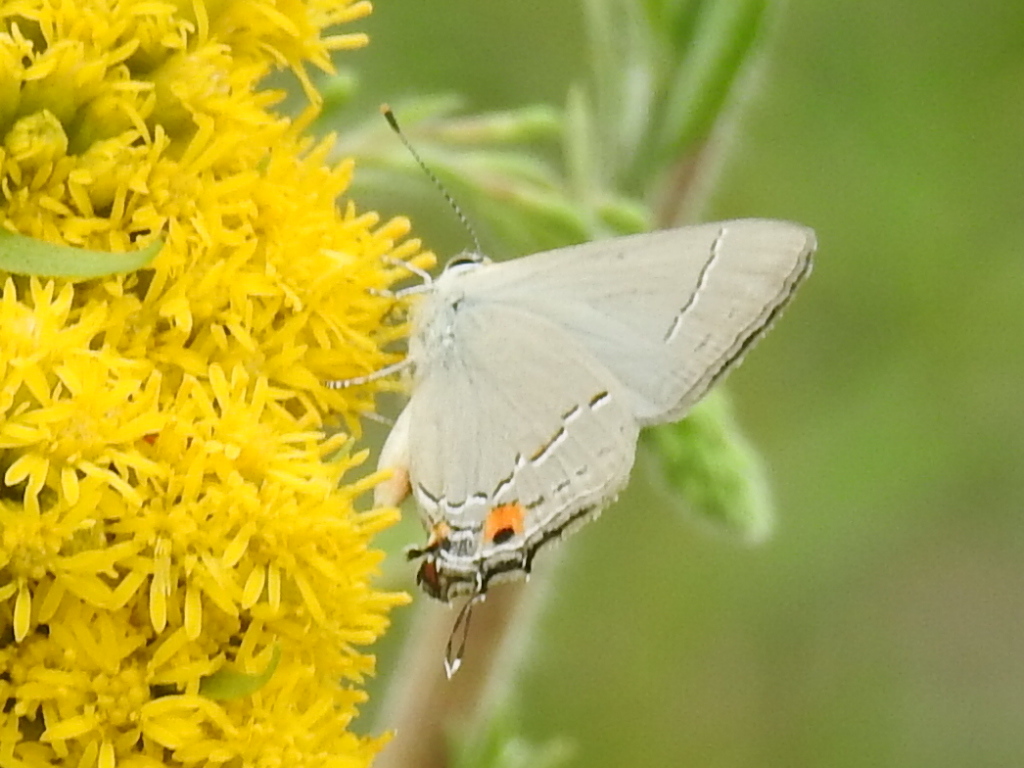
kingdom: Animalia
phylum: Arthropoda
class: Insecta
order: Lepidoptera
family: Lycaenidae
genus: Strymon
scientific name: Strymon melinus
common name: Gray hairstreak
